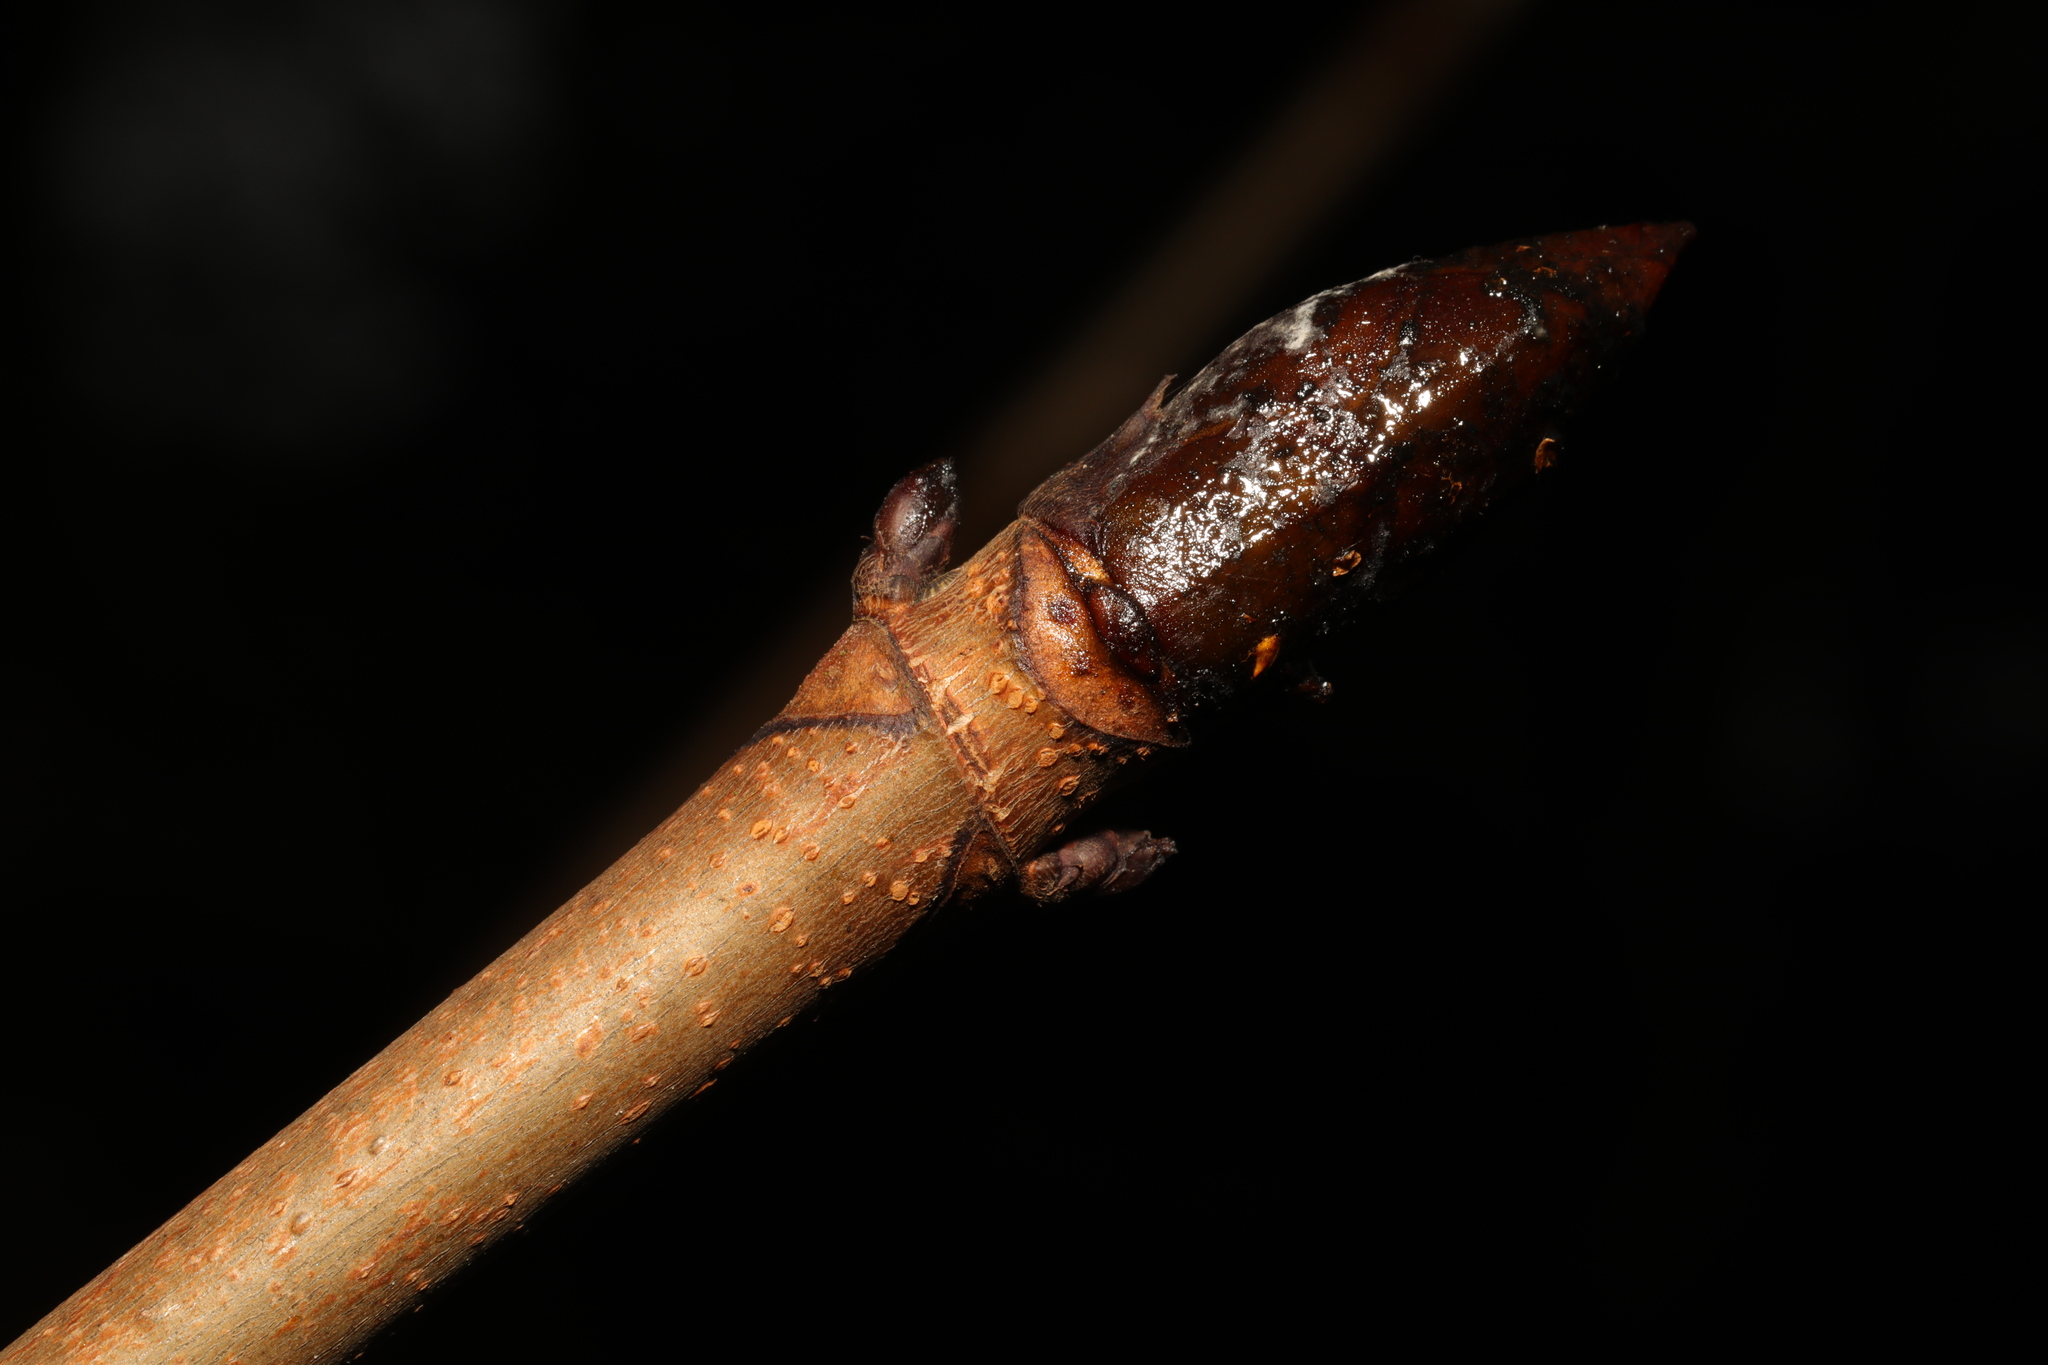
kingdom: Plantae
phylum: Tracheophyta
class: Magnoliopsida
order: Sapindales
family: Sapindaceae
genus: Aesculus
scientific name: Aesculus hippocastanum
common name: Horse-chestnut
